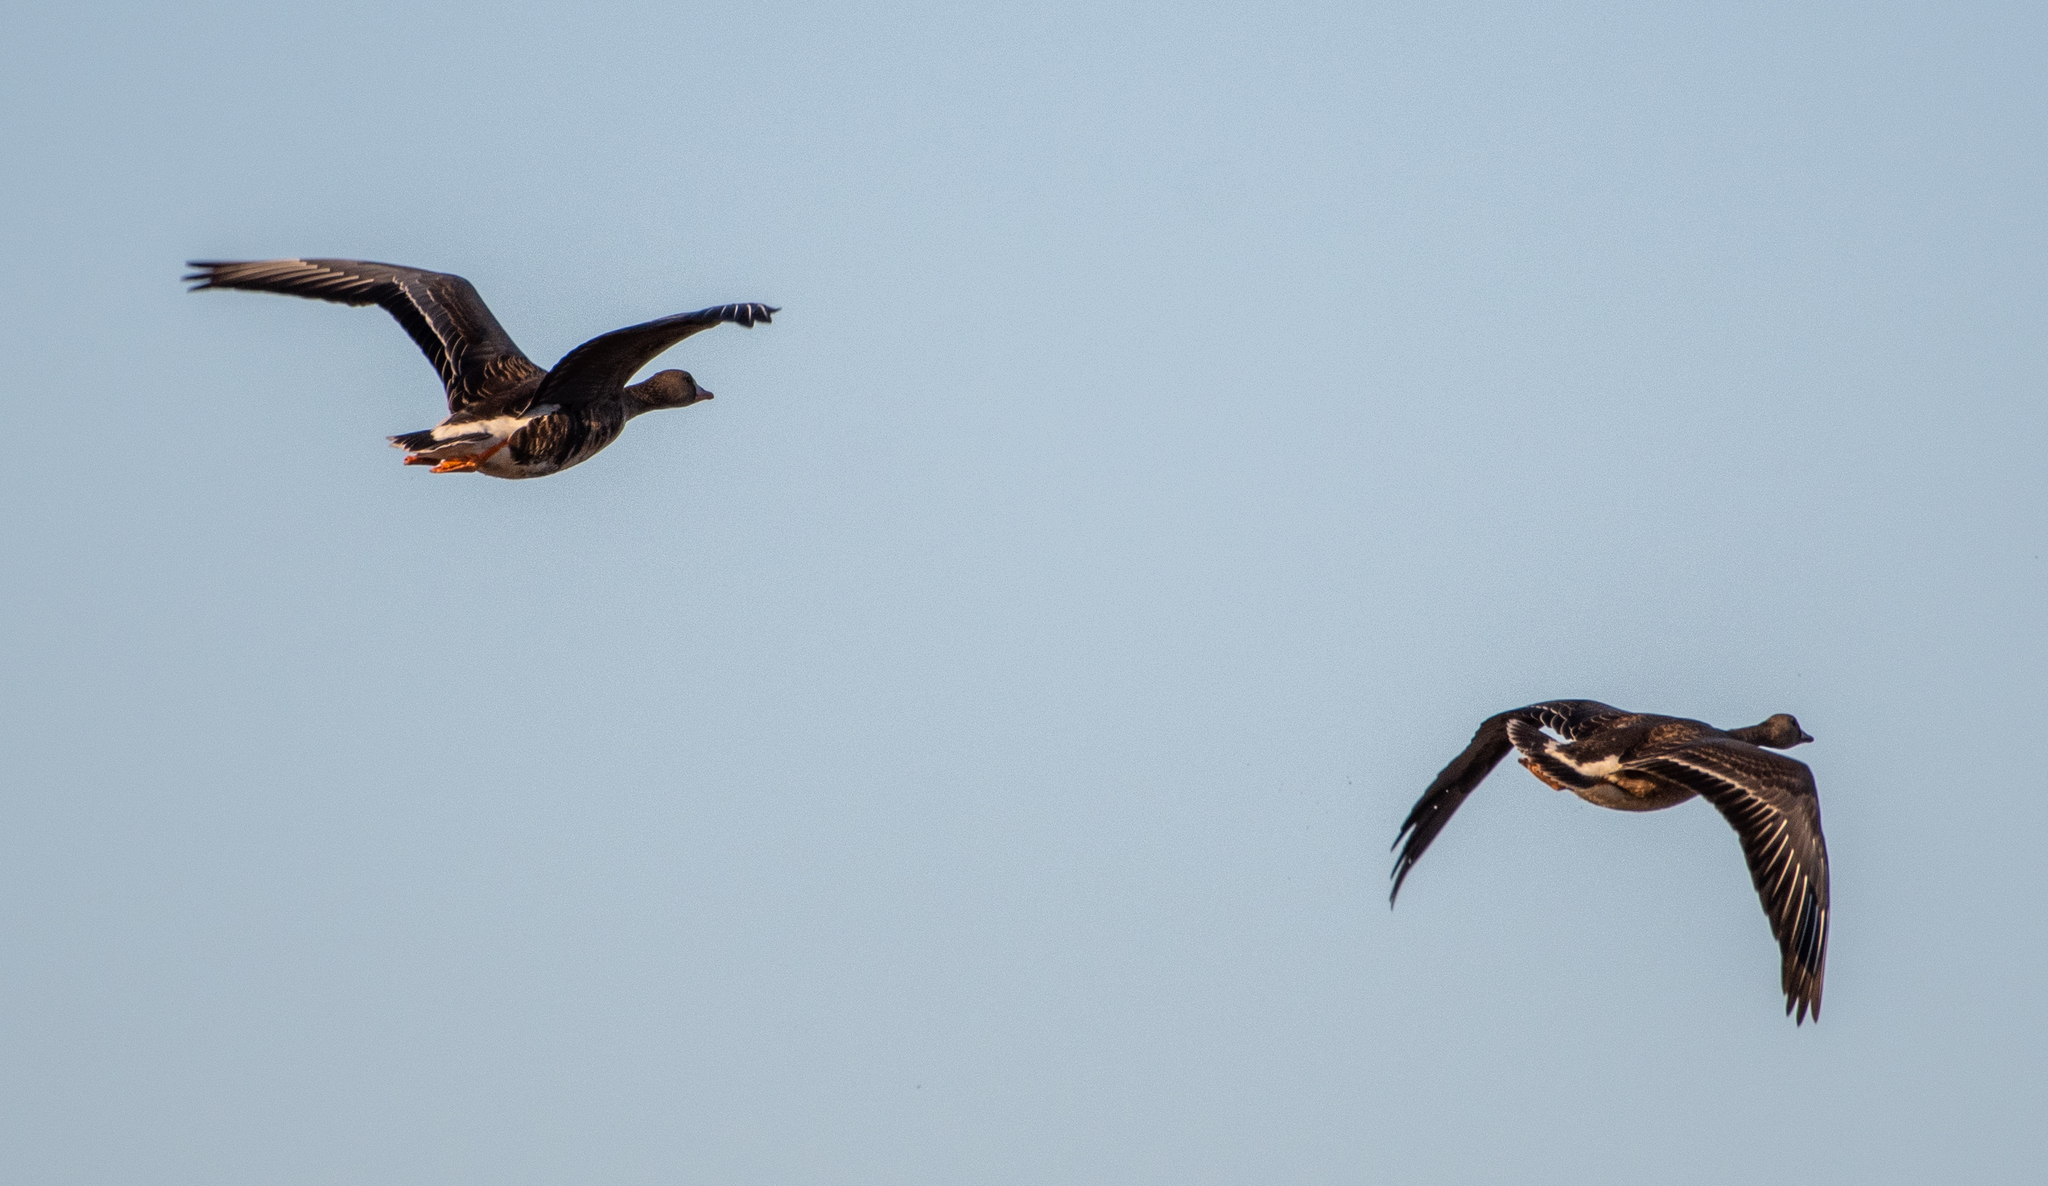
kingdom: Animalia
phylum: Chordata
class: Aves
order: Anseriformes
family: Anatidae
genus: Anser
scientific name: Anser albifrons
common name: Greater white-fronted goose
